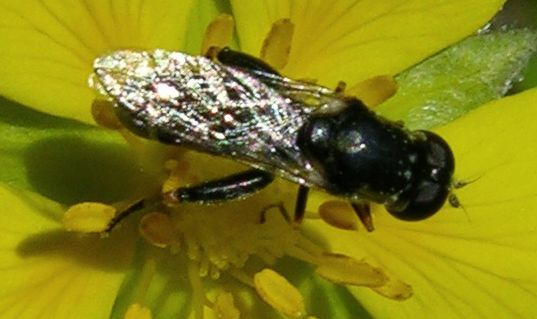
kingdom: Animalia
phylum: Arthropoda
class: Insecta
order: Diptera
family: Syrphidae
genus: Syritta
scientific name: Syritta pipiens
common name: Hover fly
